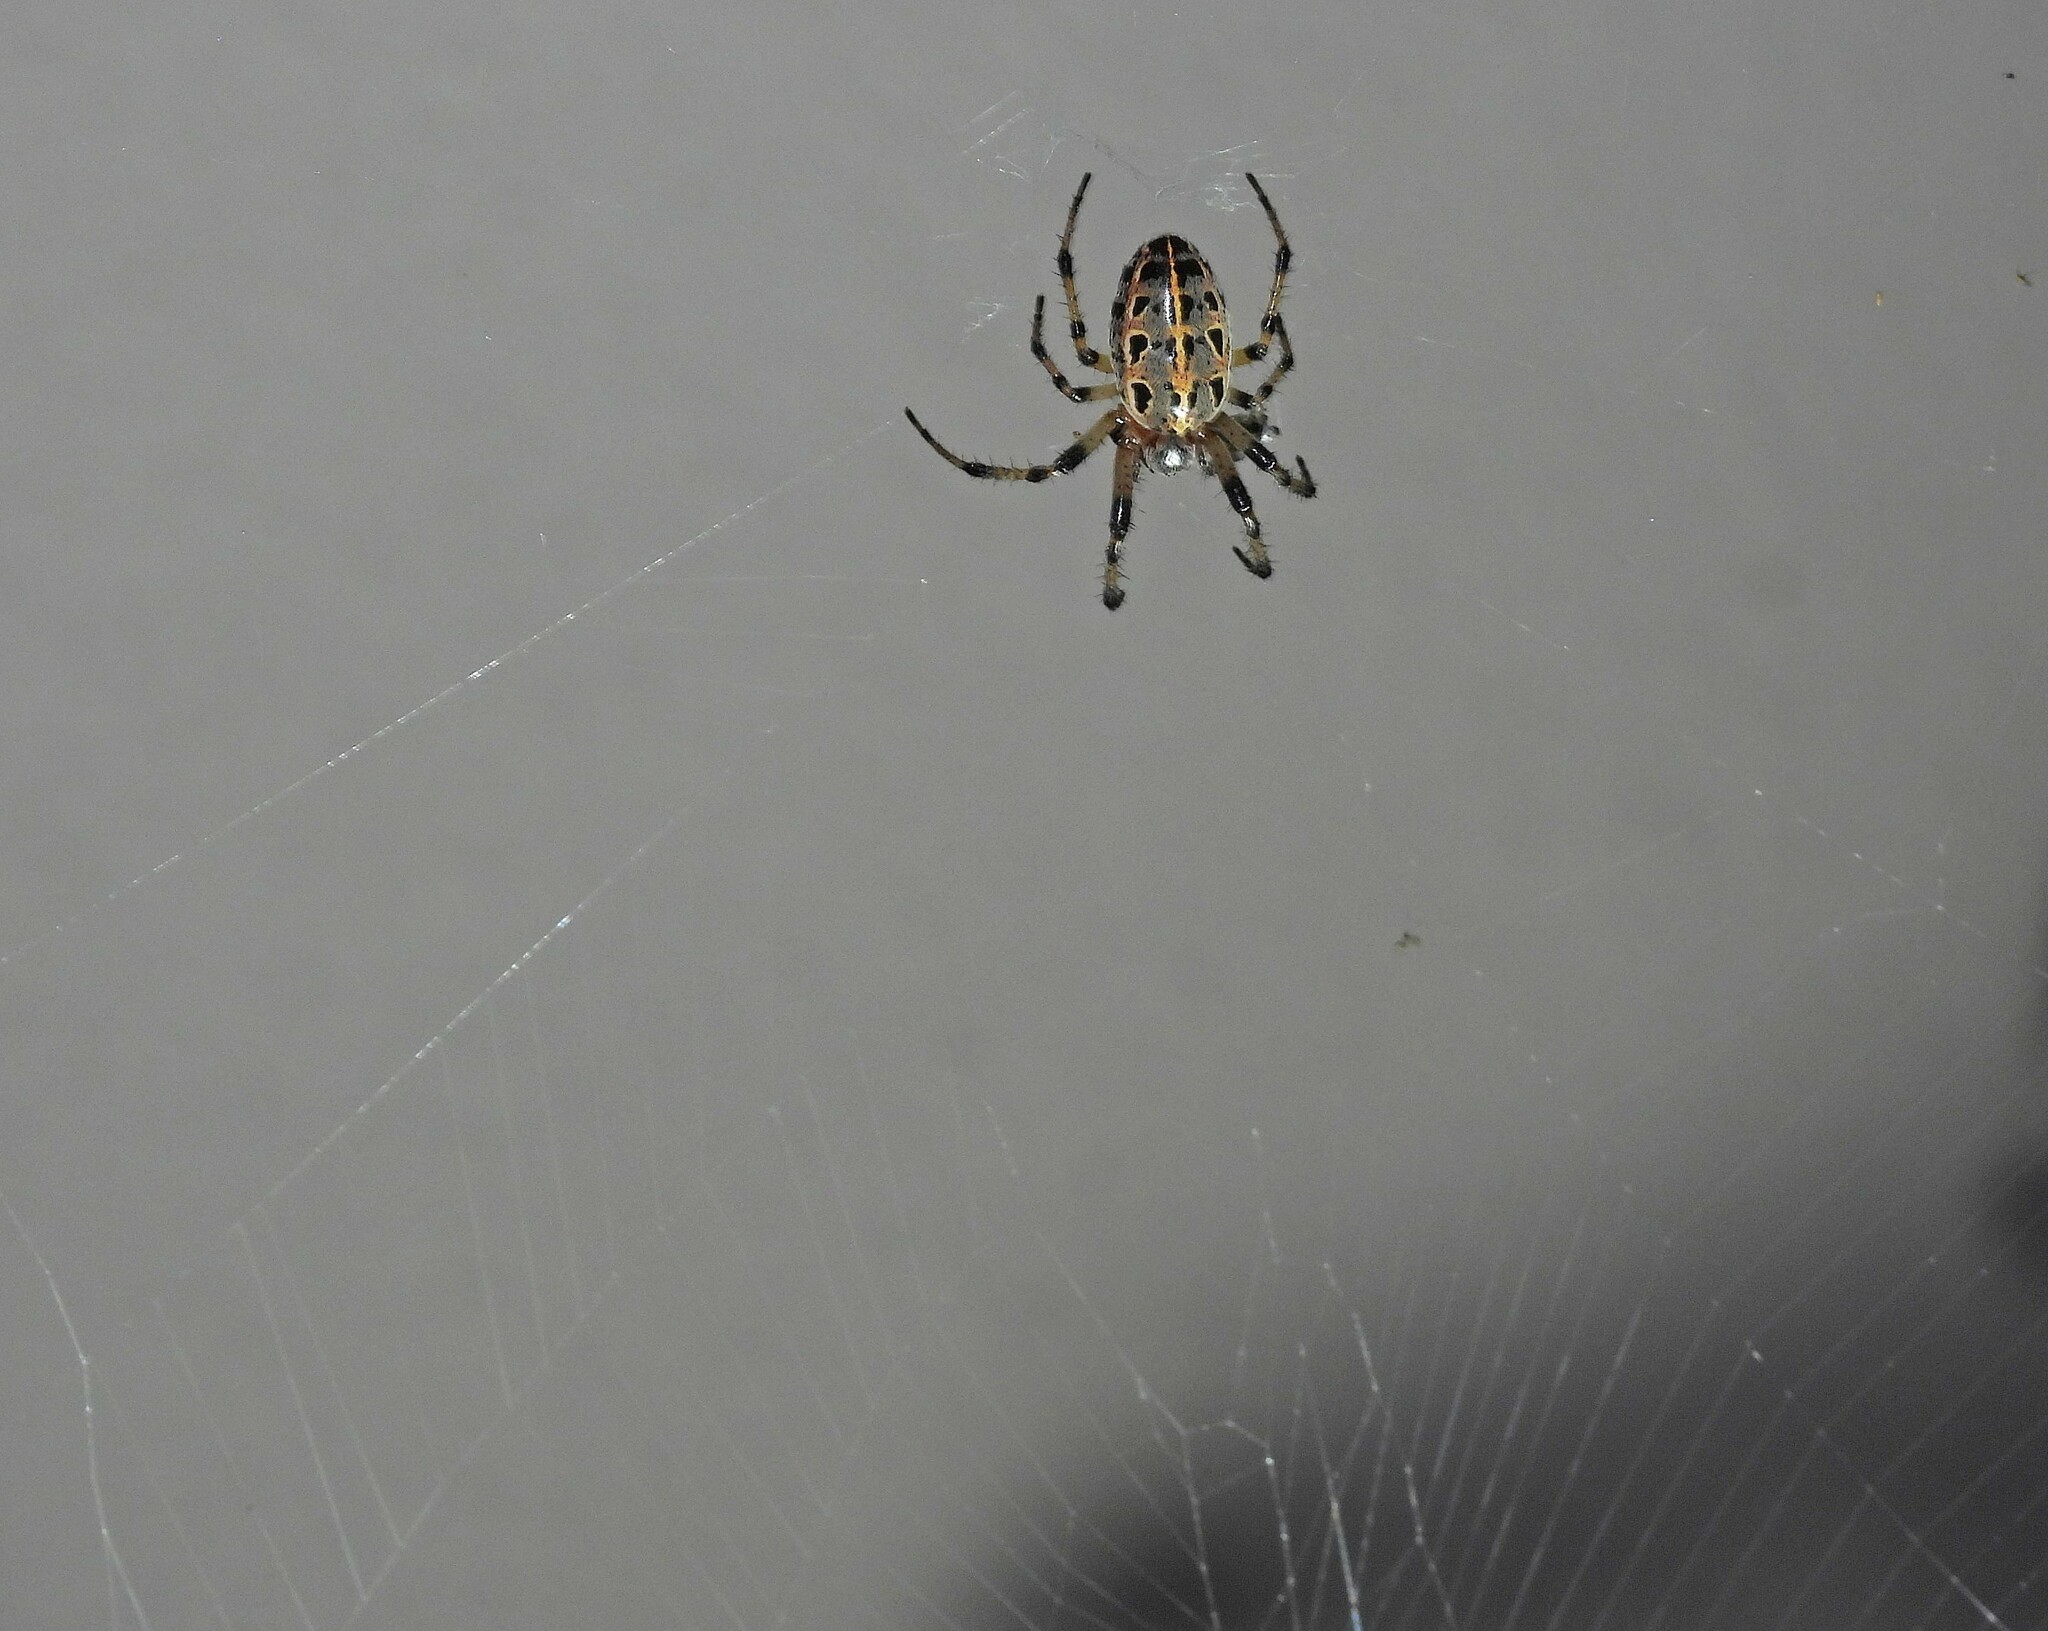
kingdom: Animalia
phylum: Arthropoda
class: Arachnida
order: Araneae
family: Araneidae
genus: Alpaida
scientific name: Alpaida veniliae
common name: Orb weavers
